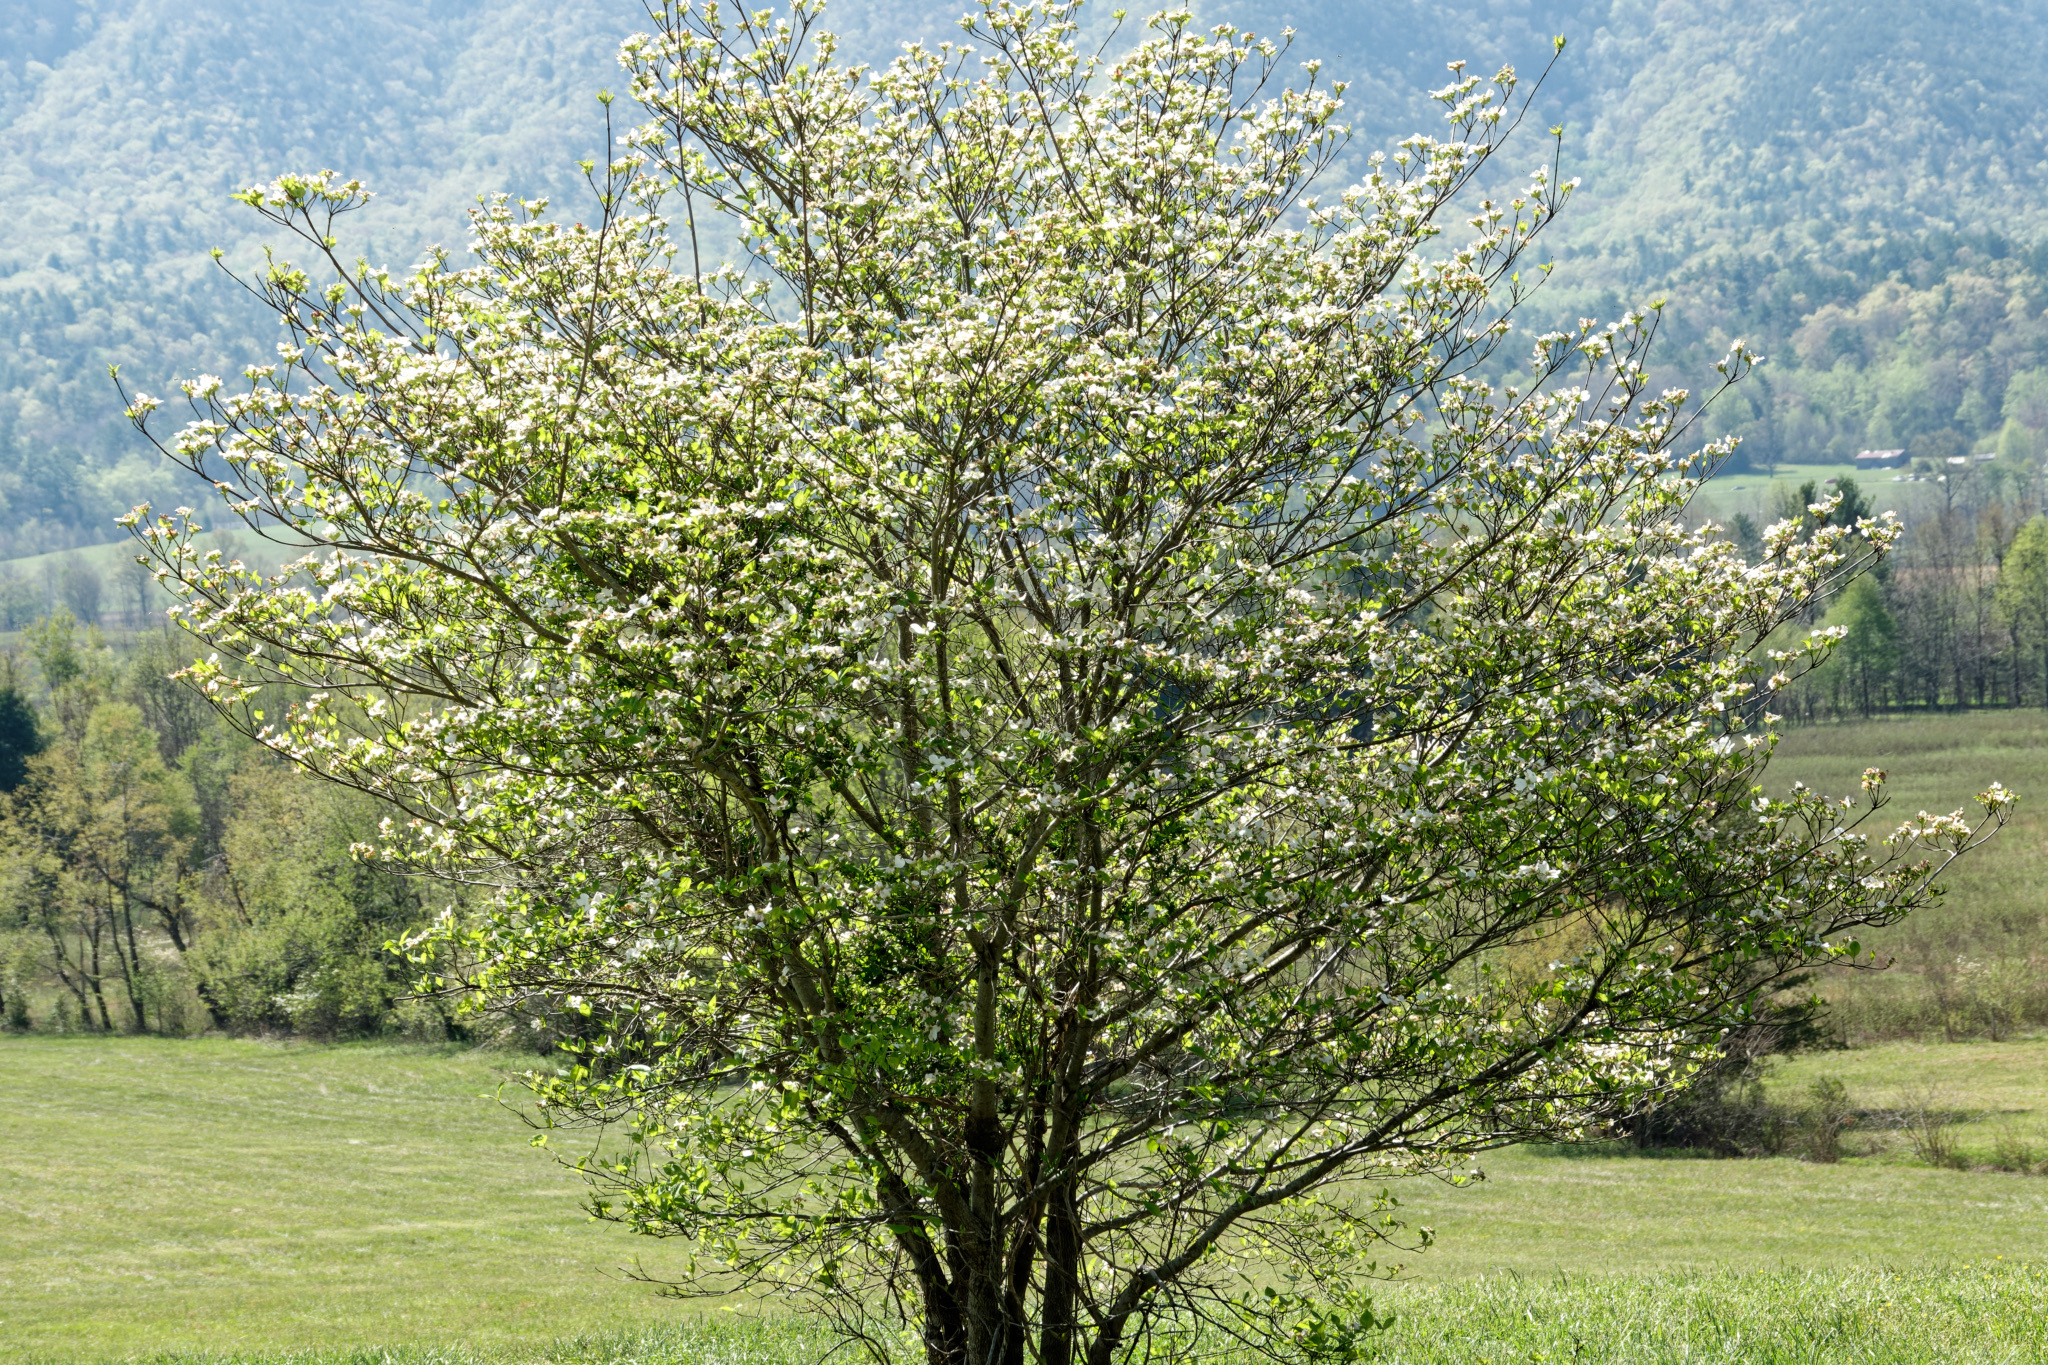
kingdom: Plantae
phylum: Tracheophyta
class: Magnoliopsida
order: Cornales
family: Cornaceae
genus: Cornus
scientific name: Cornus florida
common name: Flowering dogwood
